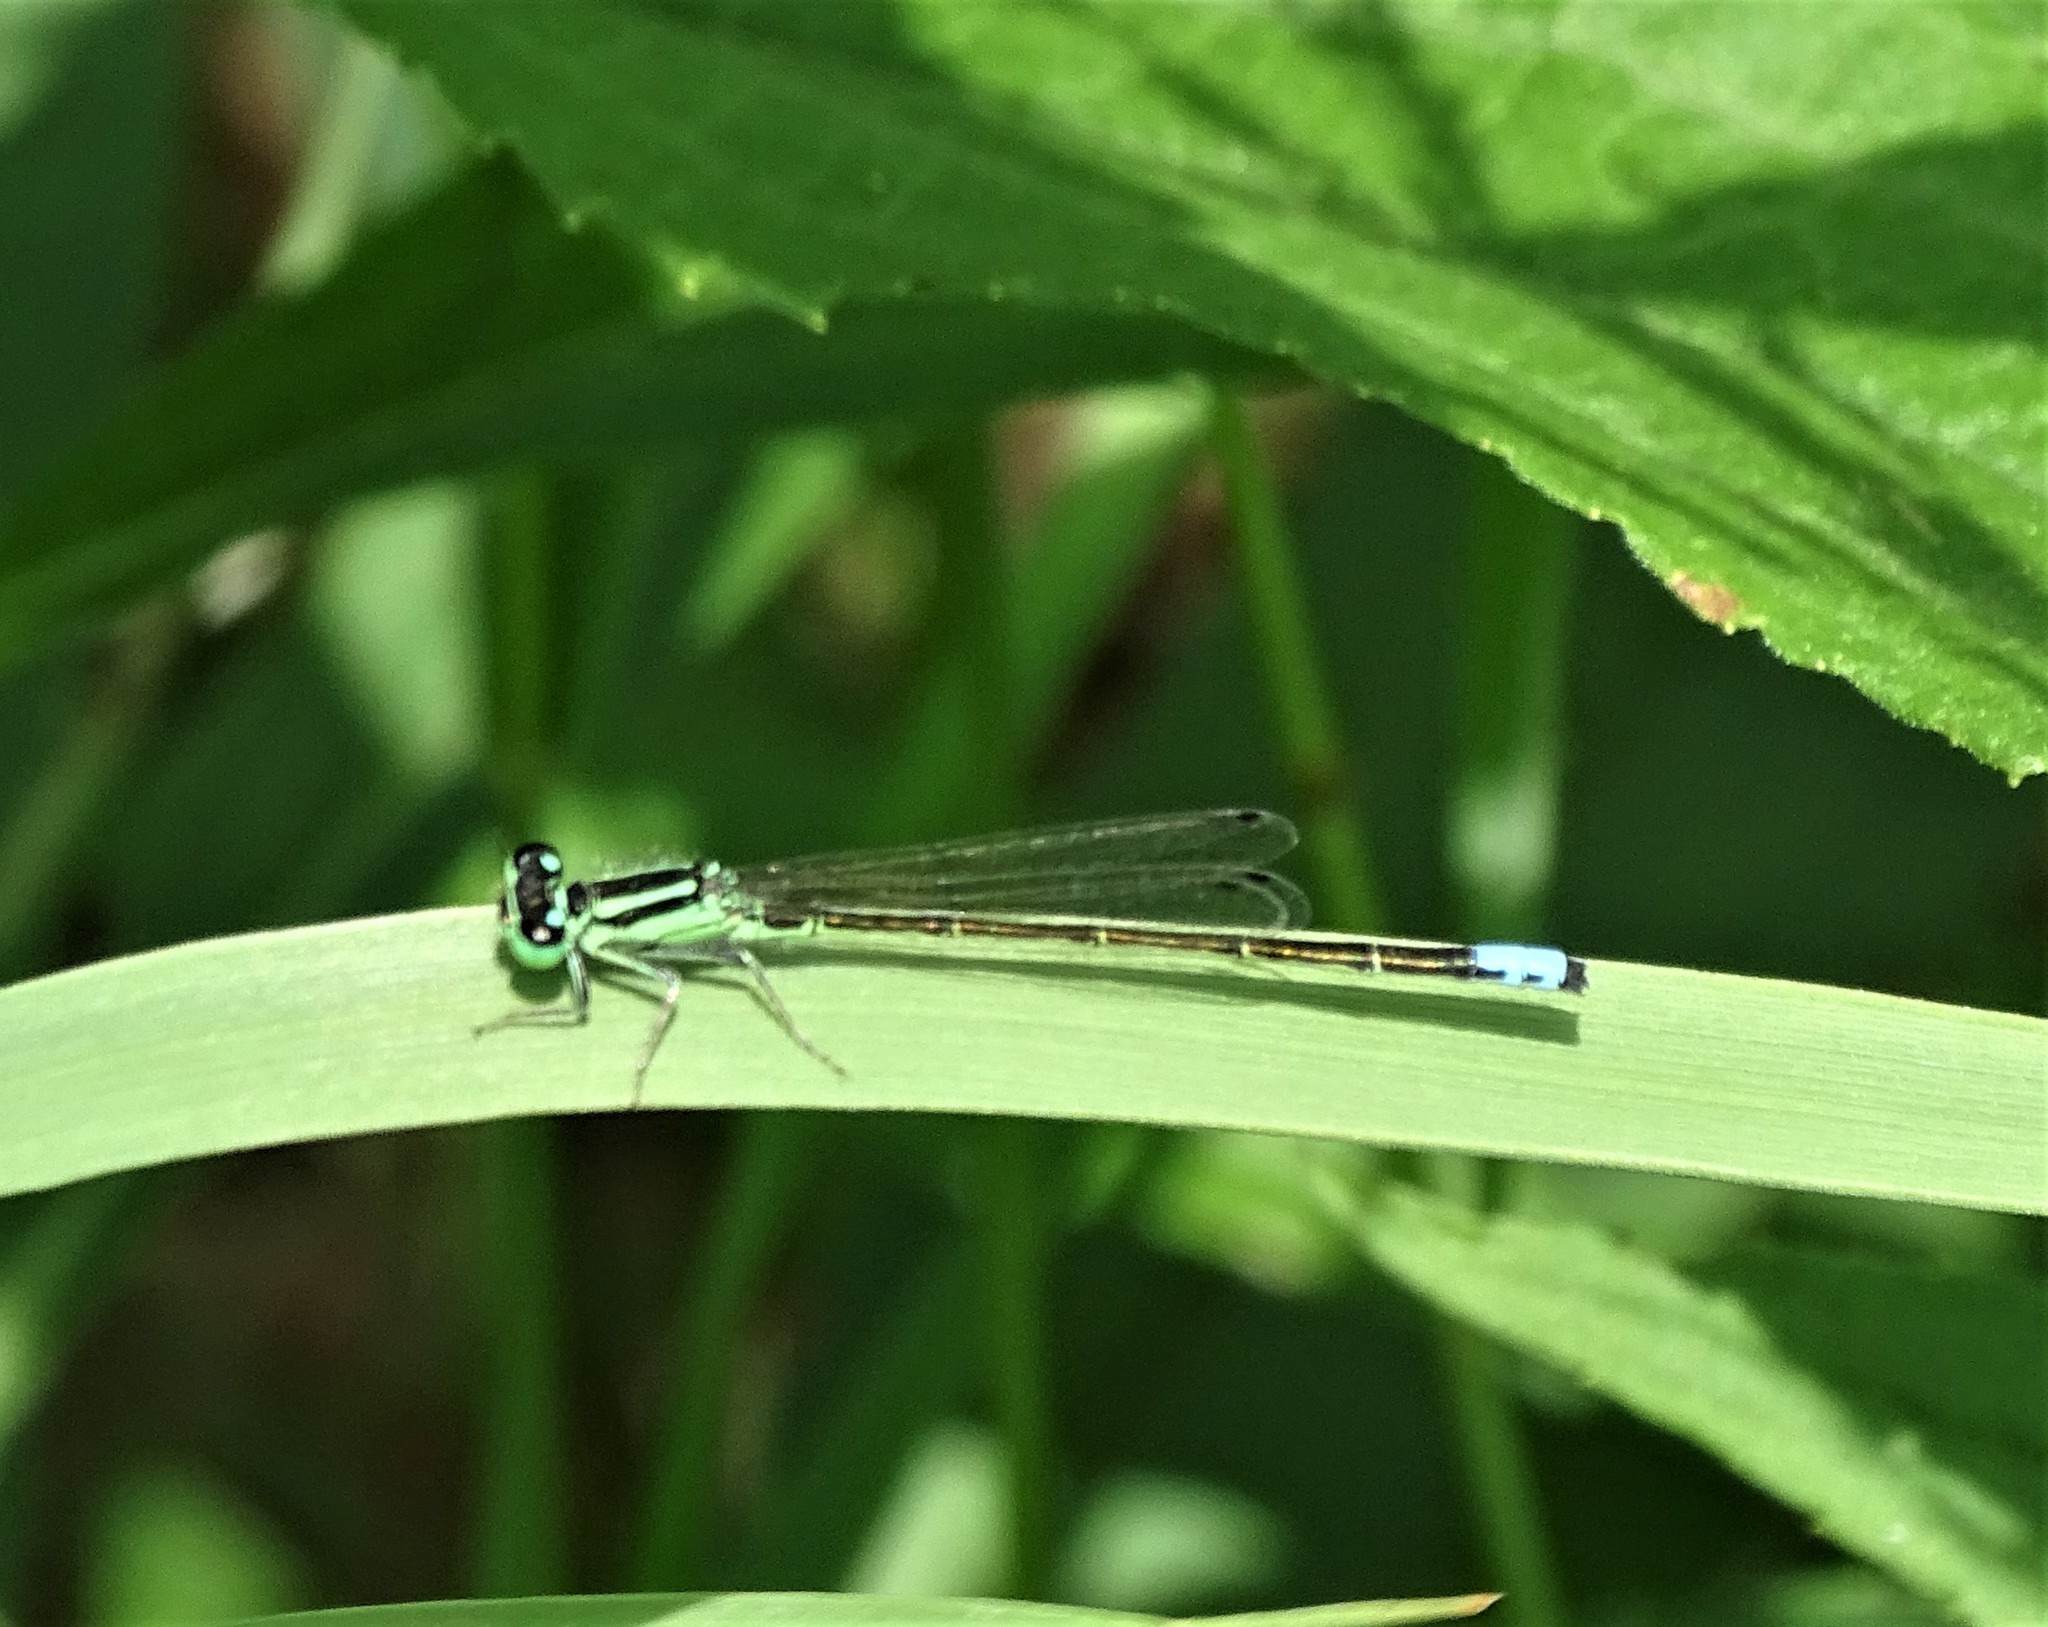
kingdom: Animalia
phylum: Arthropoda
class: Insecta
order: Odonata
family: Coenagrionidae
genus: Ischnura
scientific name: Ischnura verticalis
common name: Eastern forktail
